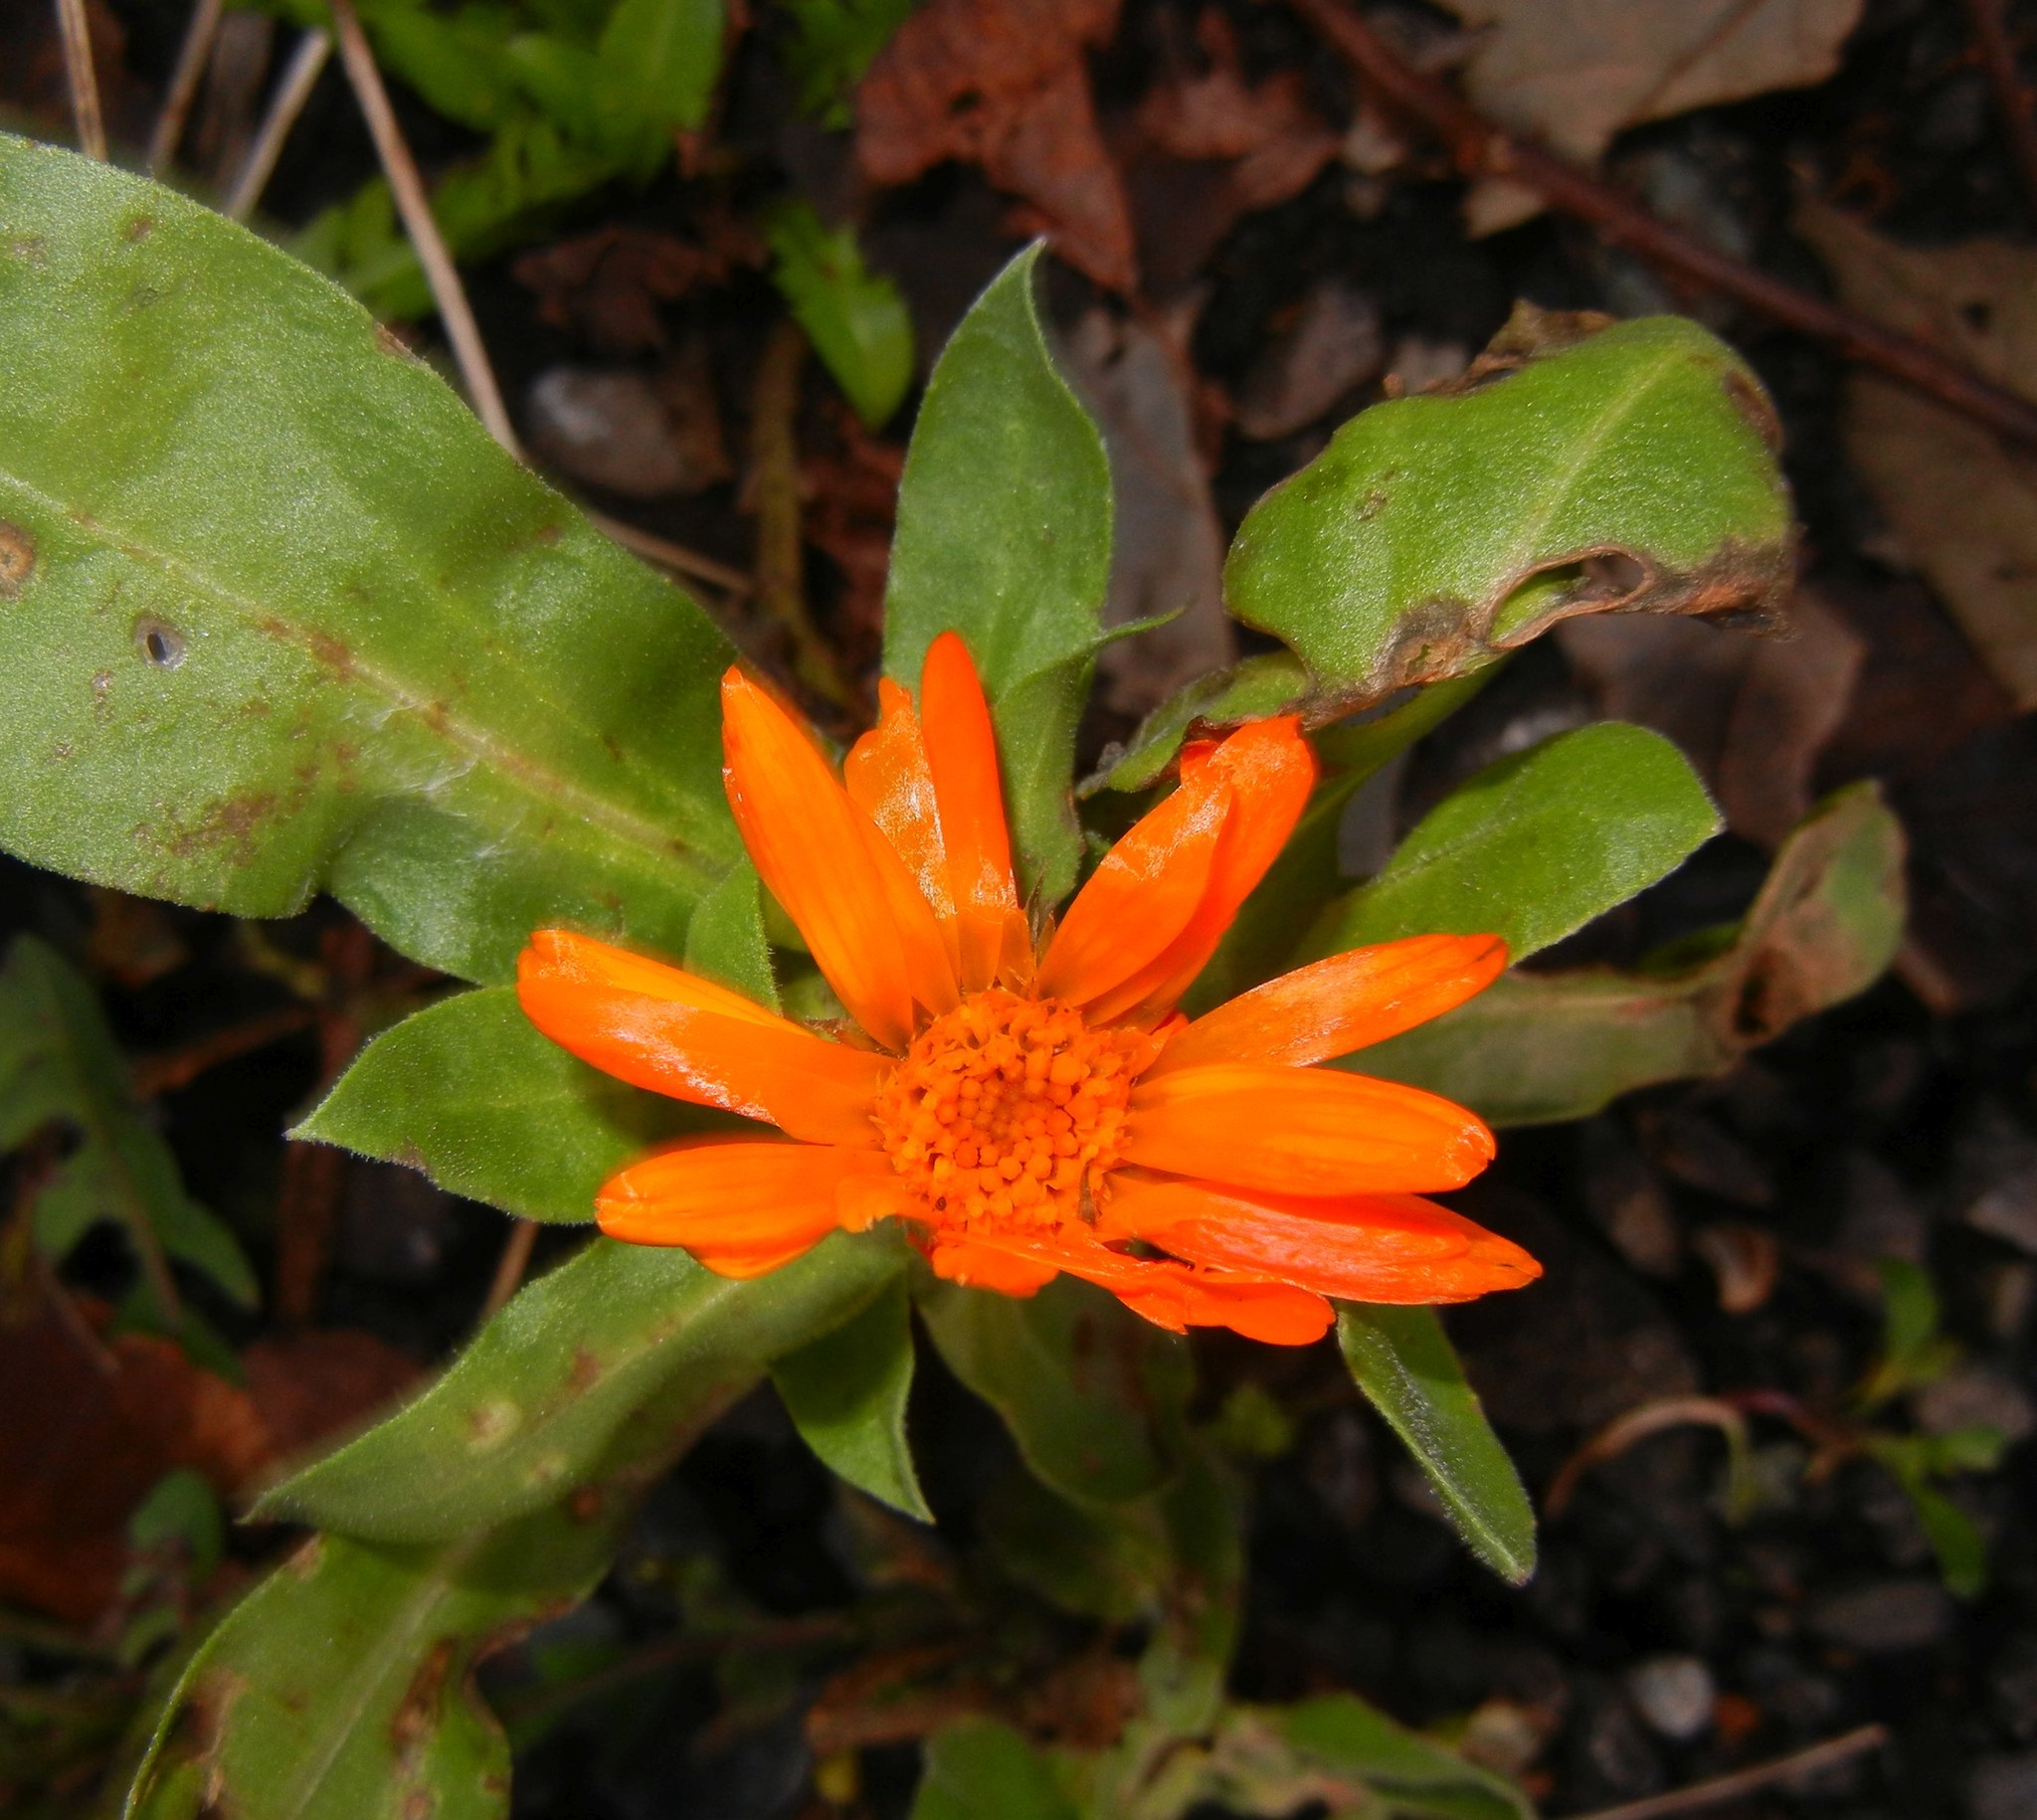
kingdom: Plantae
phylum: Tracheophyta
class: Magnoliopsida
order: Asterales
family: Asteraceae
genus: Calendula
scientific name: Calendula officinalis
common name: Pot marigold
